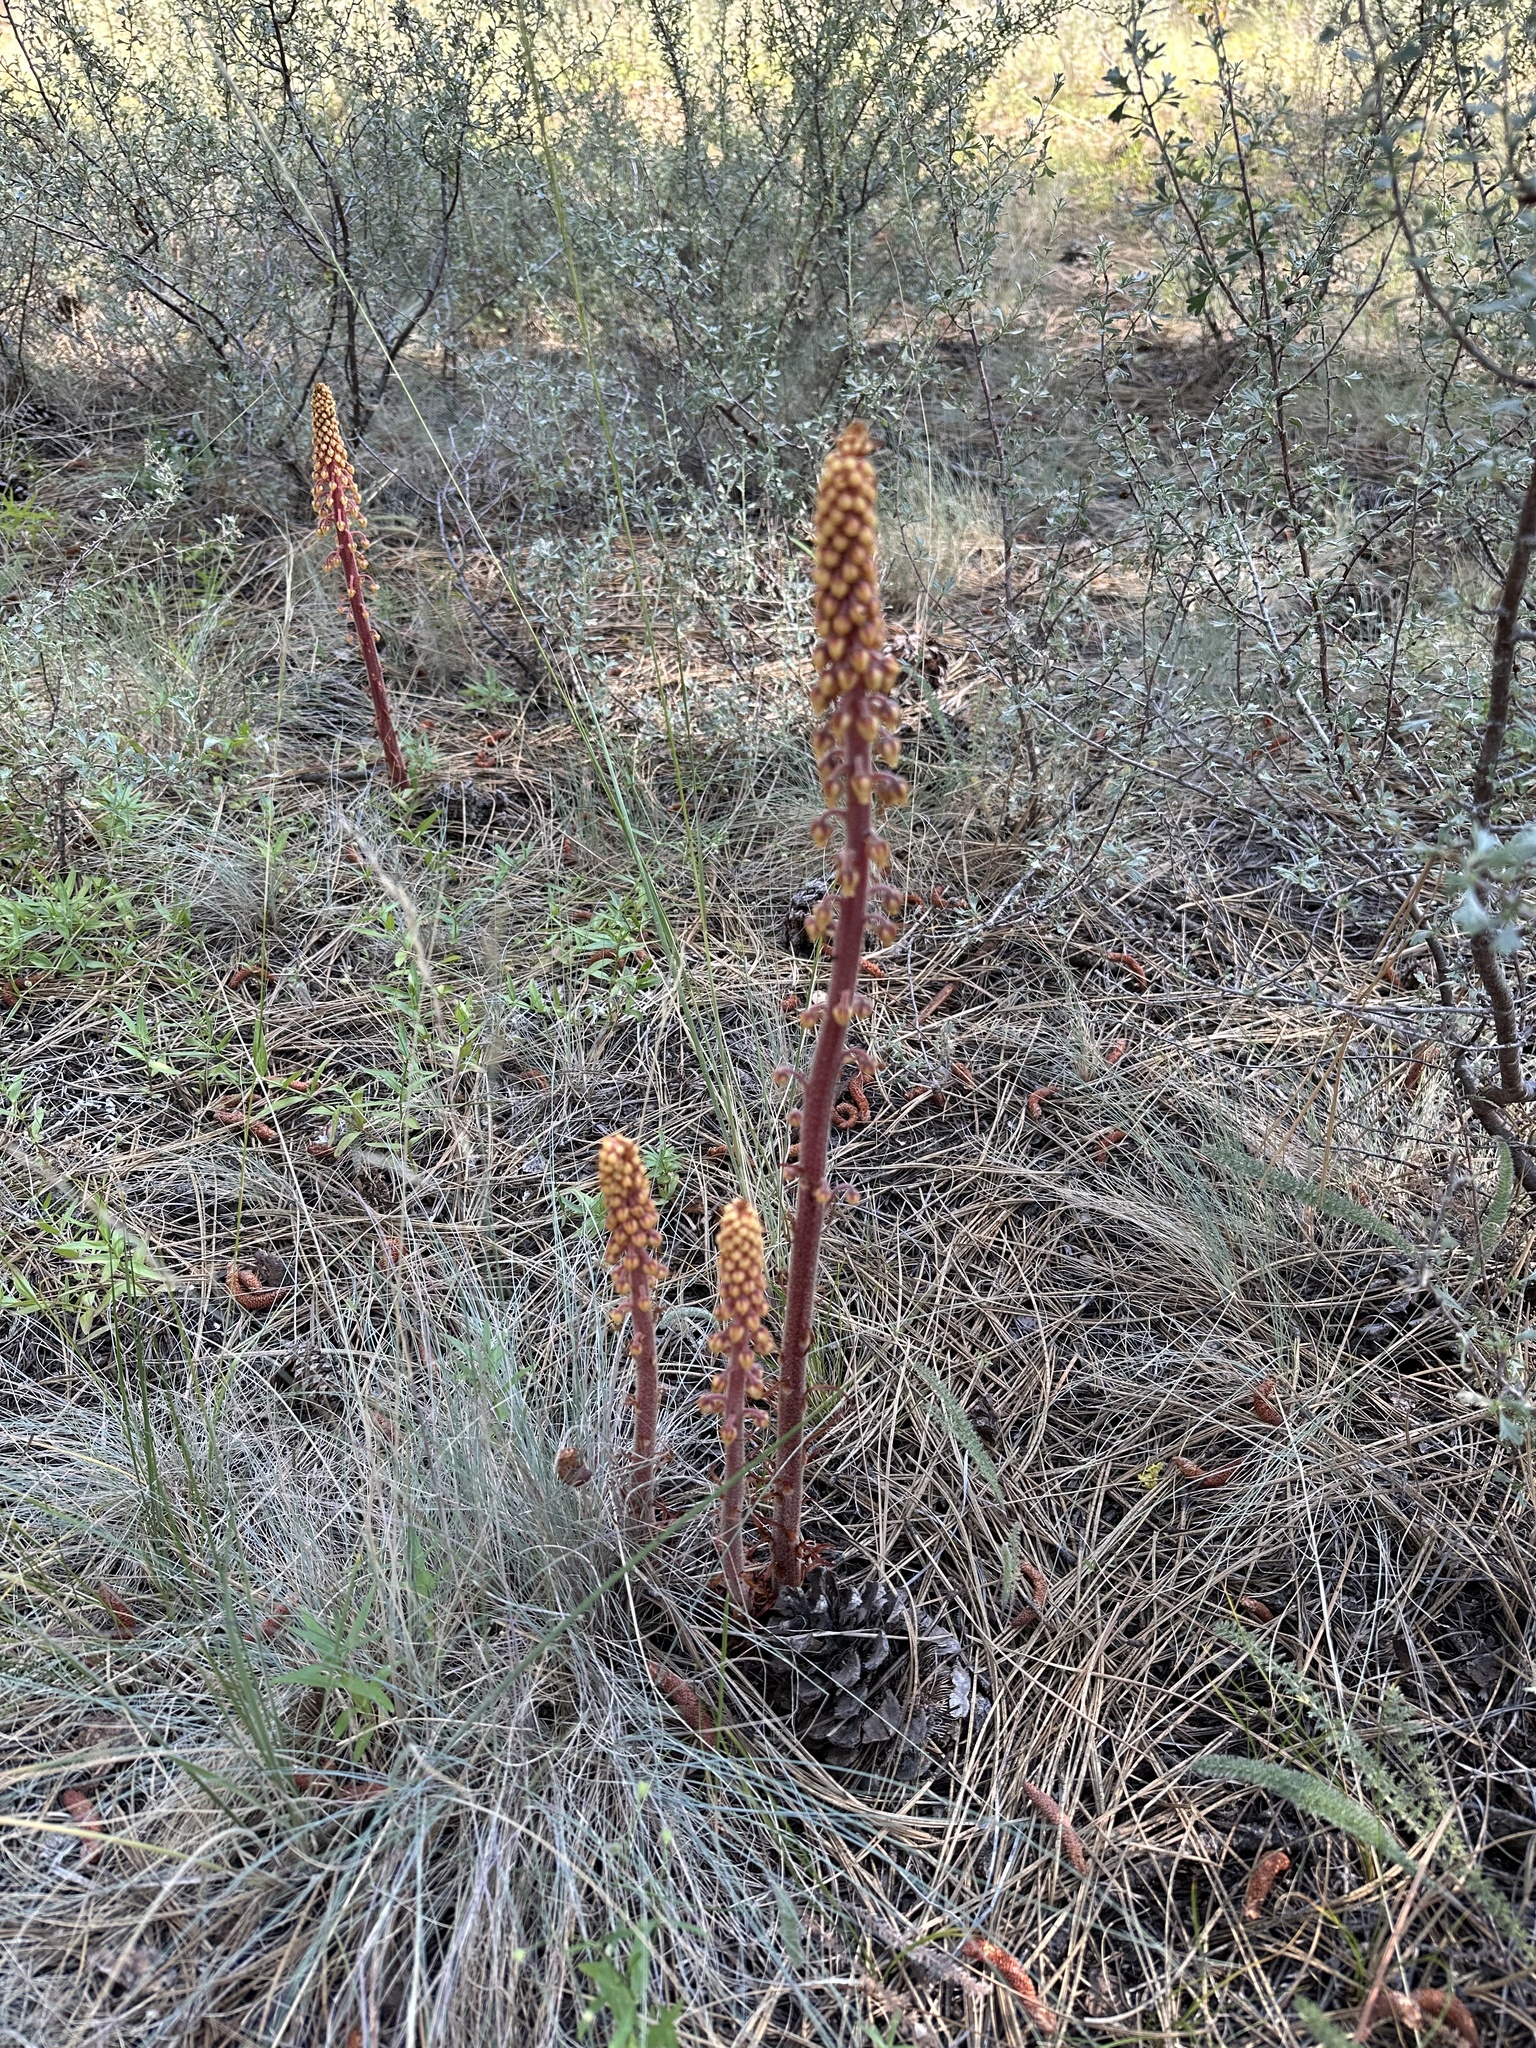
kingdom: Plantae
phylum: Tracheophyta
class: Magnoliopsida
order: Ericales
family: Ericaceae
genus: Pterospora
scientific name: Pterospora andromedea
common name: Giant bird's-nest
